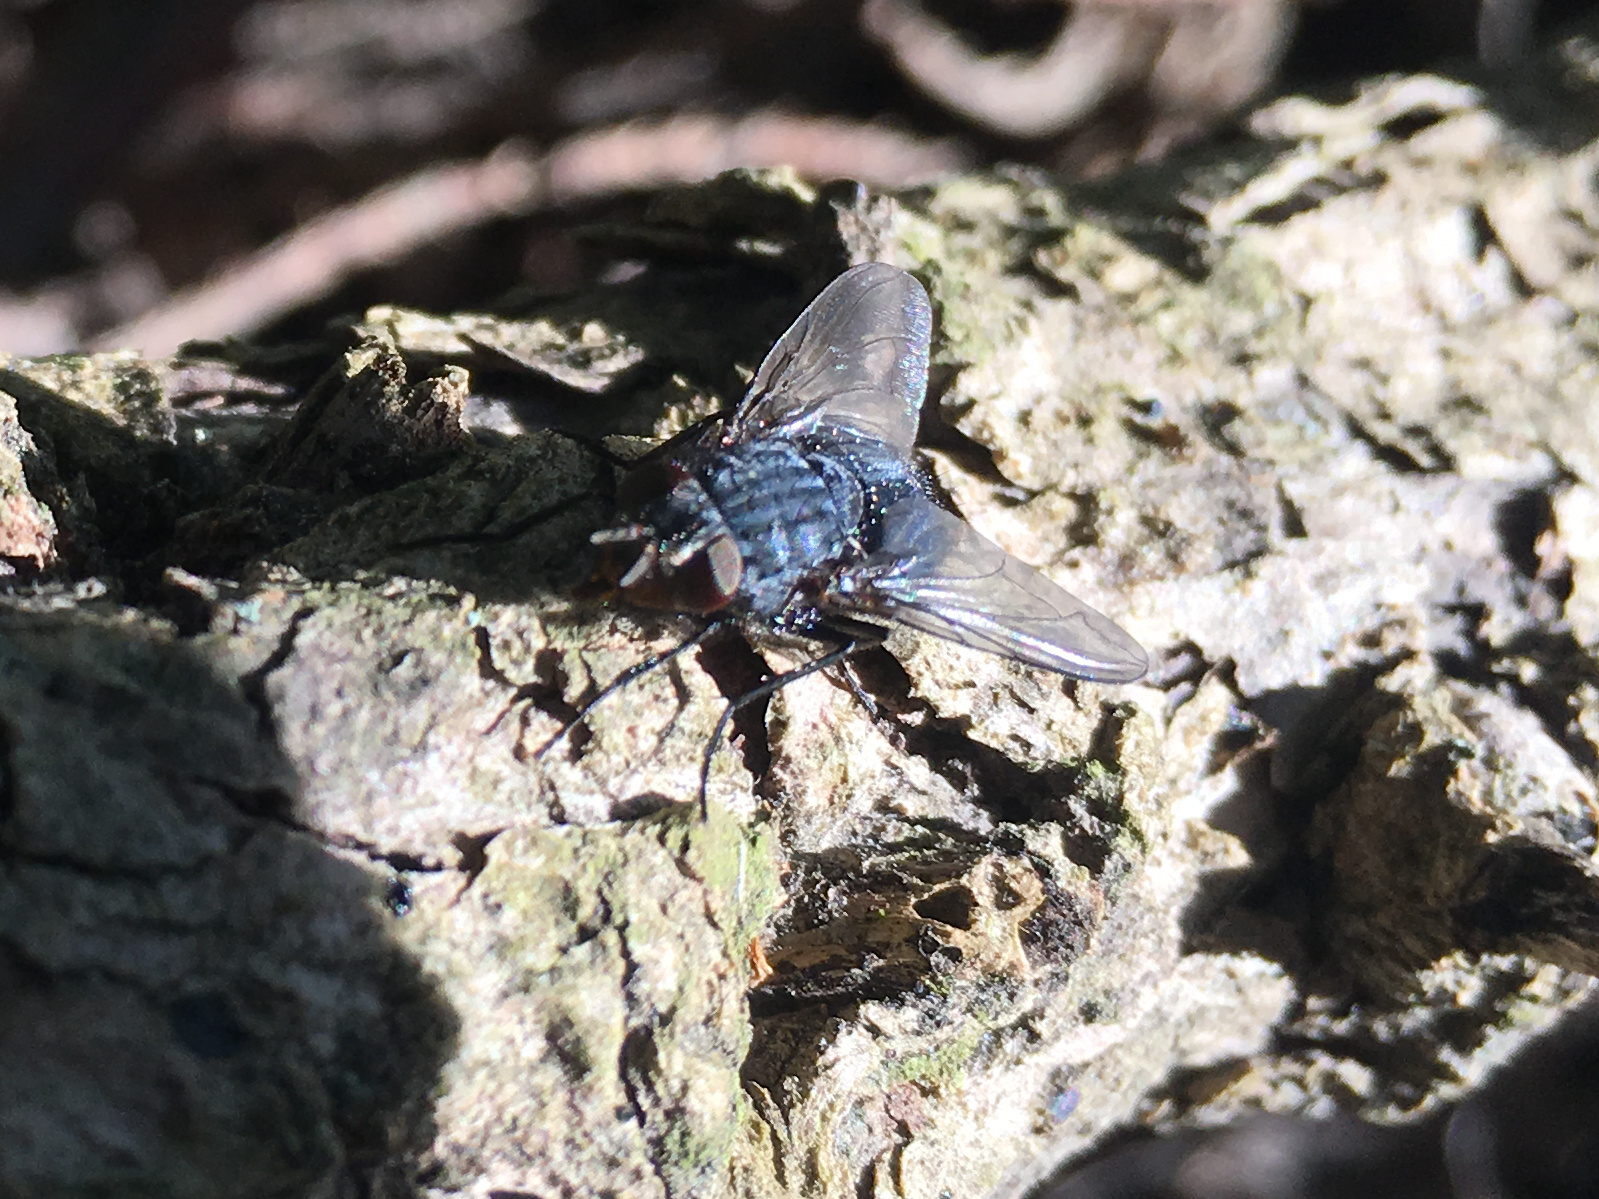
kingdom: Animalia
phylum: Arthropoda
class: Insecta
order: Diptera
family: Calliphoridae
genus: Calliphora
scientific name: Calliphora vicina
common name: Common blow flie
